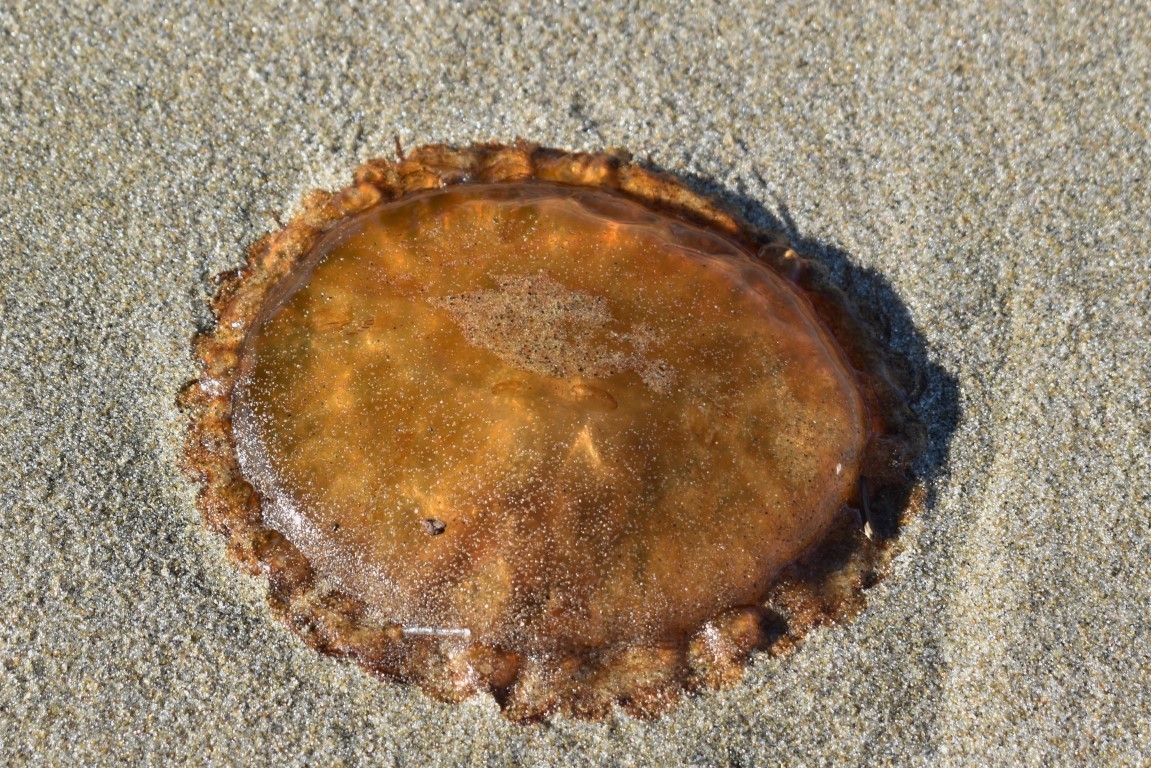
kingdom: Animalia
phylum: Cnidaria
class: Scyphozoa
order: Semaeostomeae
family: Pelagiidae
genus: Chrysaora
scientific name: Chrysaora fuscescens
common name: Sea nettle
